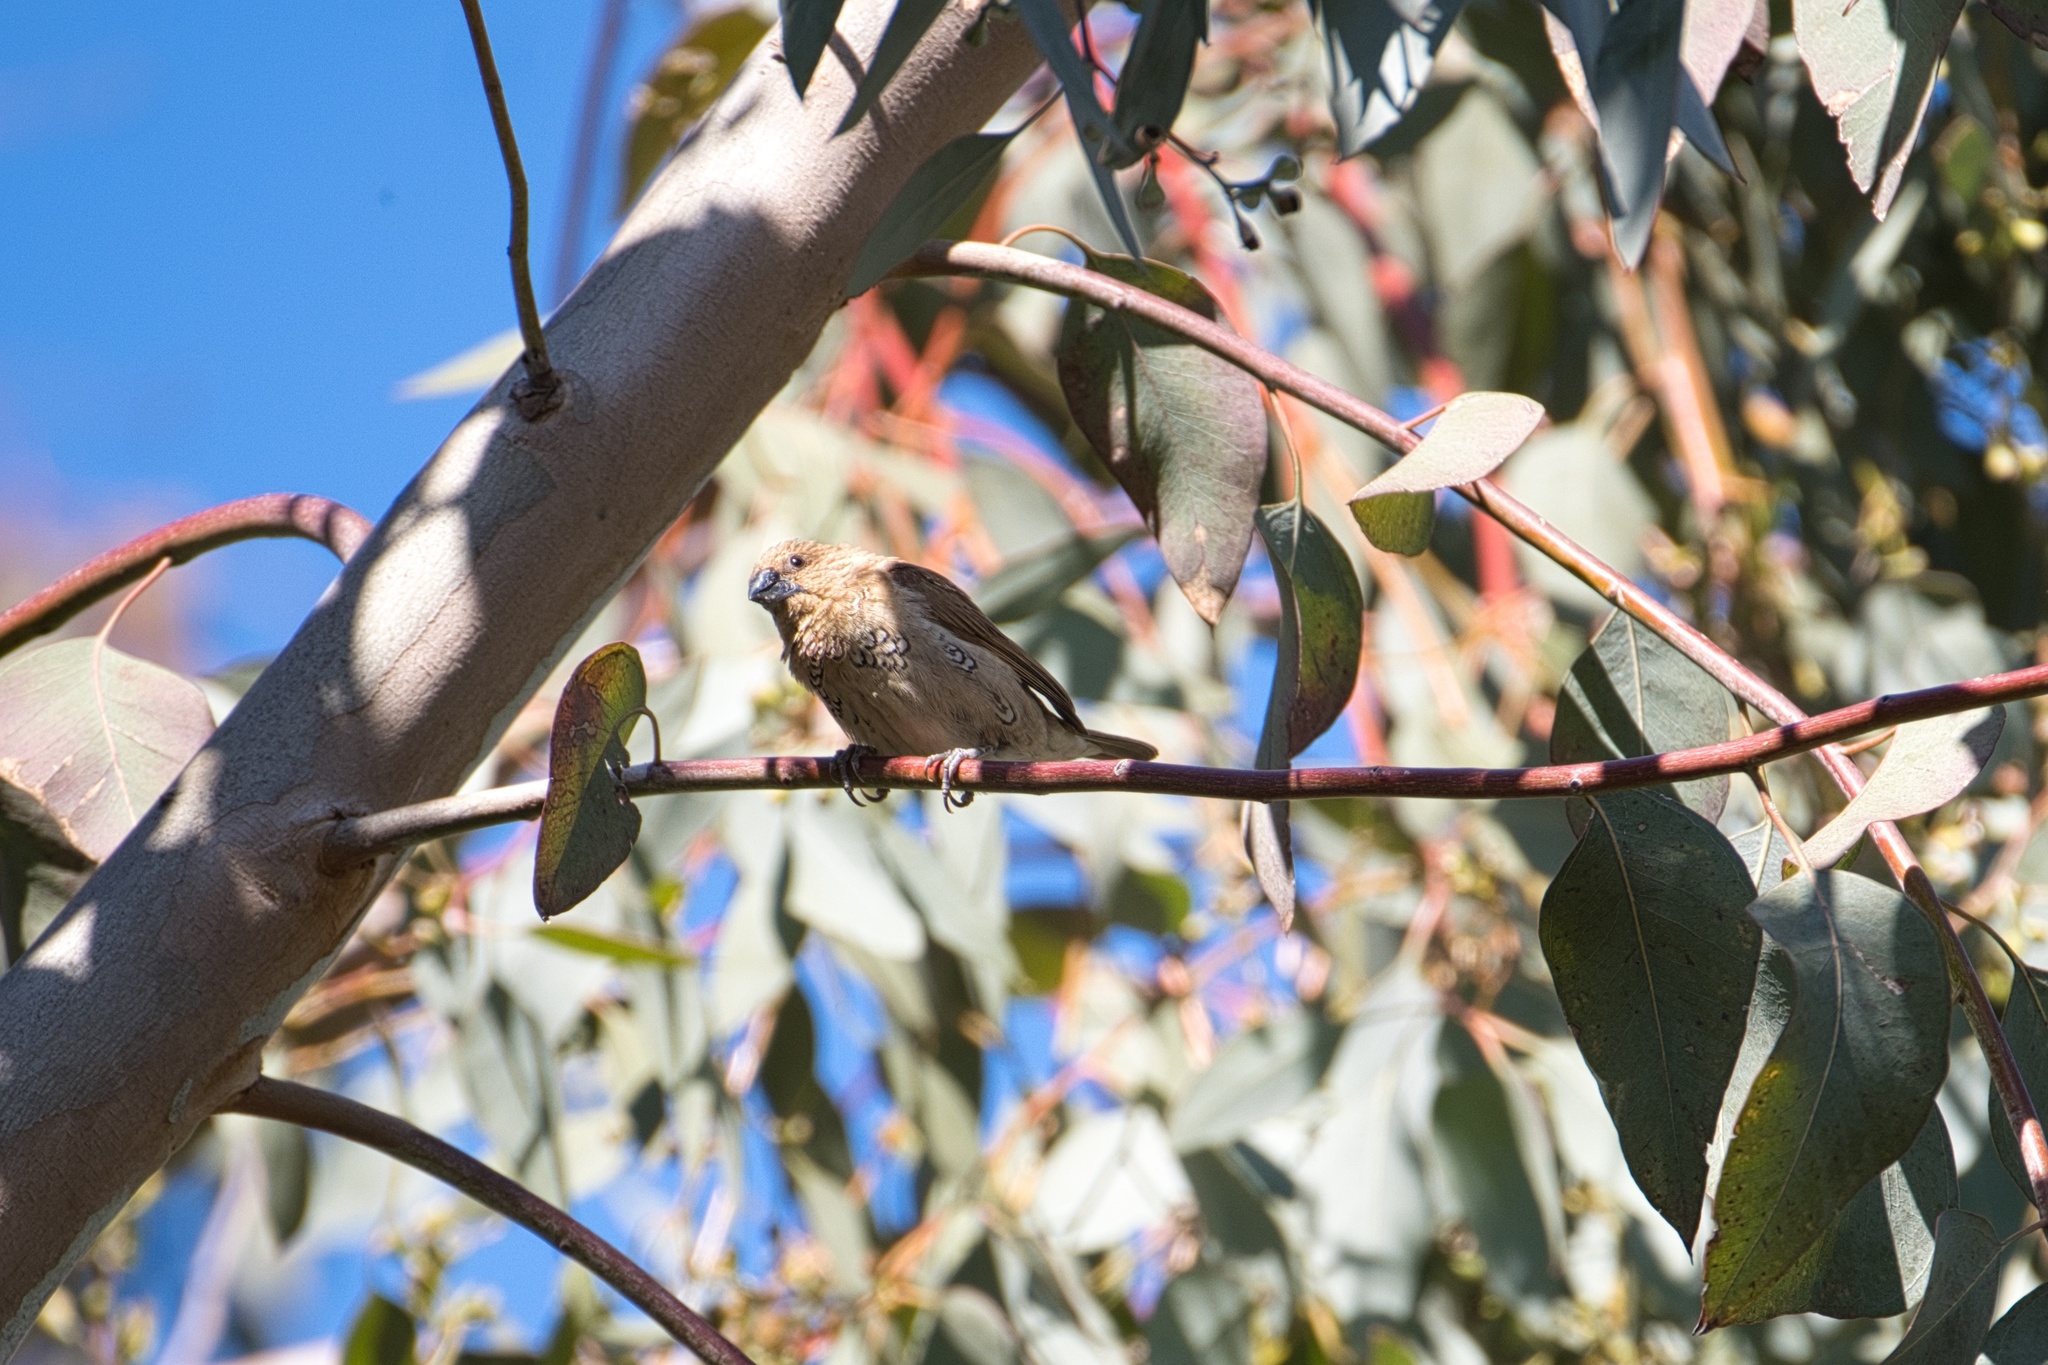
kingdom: Animalia
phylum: Chordata
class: Aves
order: Passeriformes
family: Estrildidae
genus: Lonchura
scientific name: Lonchura punctulata
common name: Scaly-breasted munia
